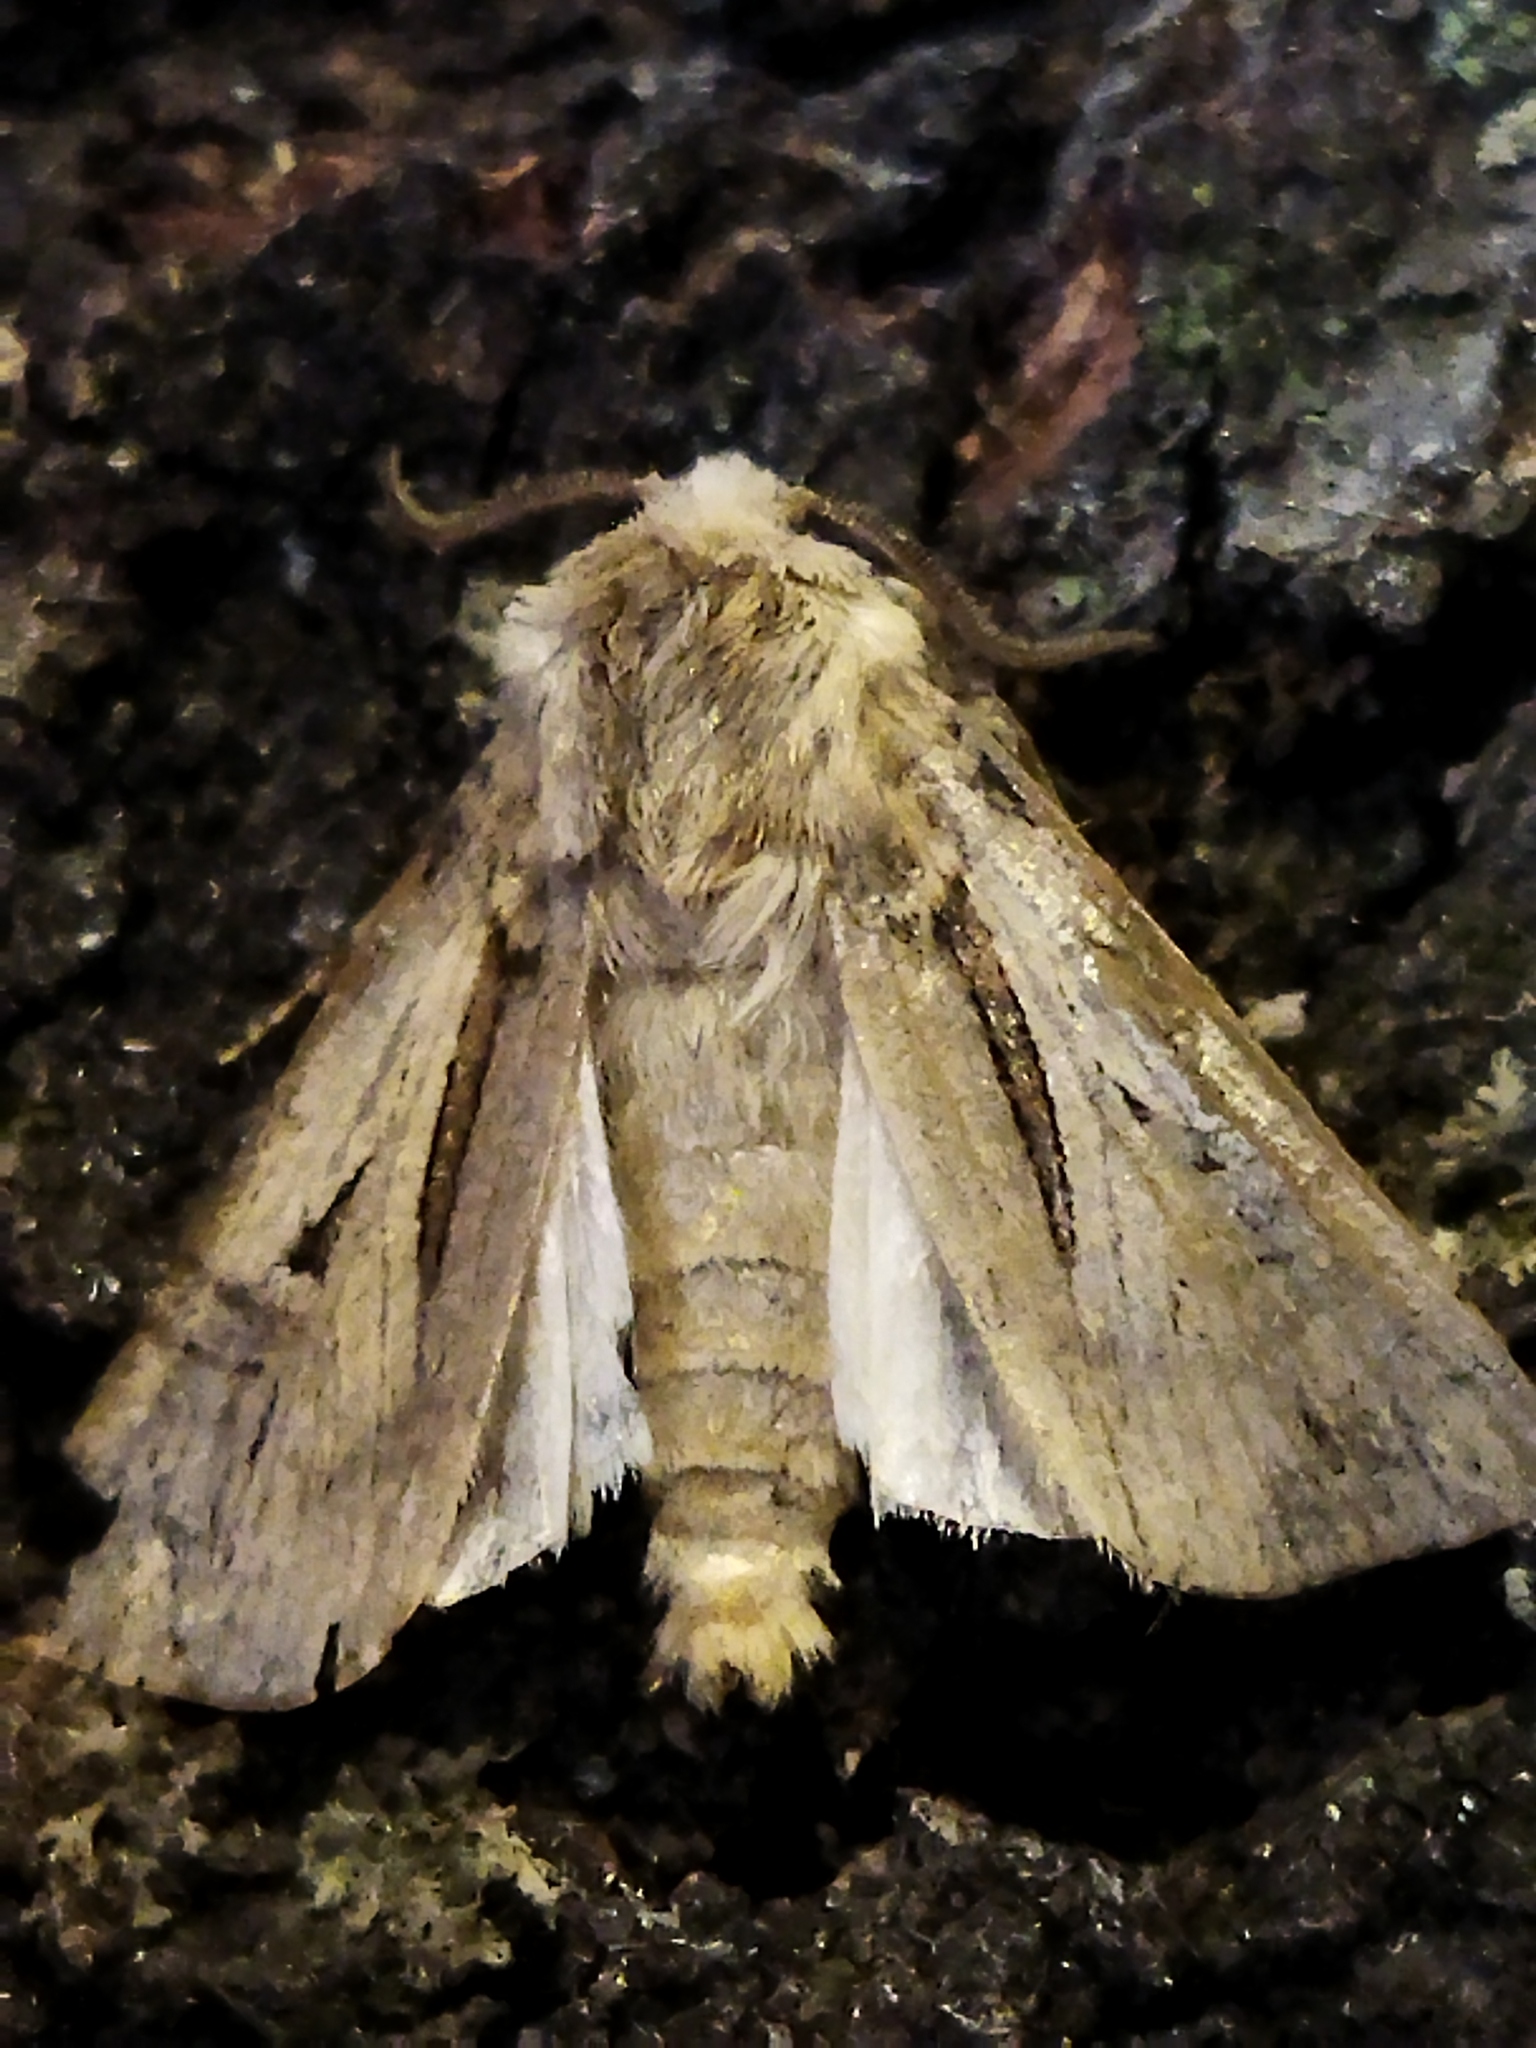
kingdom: Animalia
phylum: Arthropoda
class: Insecta
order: Lepidoptera
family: Noctuidae
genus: Agrotis
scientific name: Agrotis
